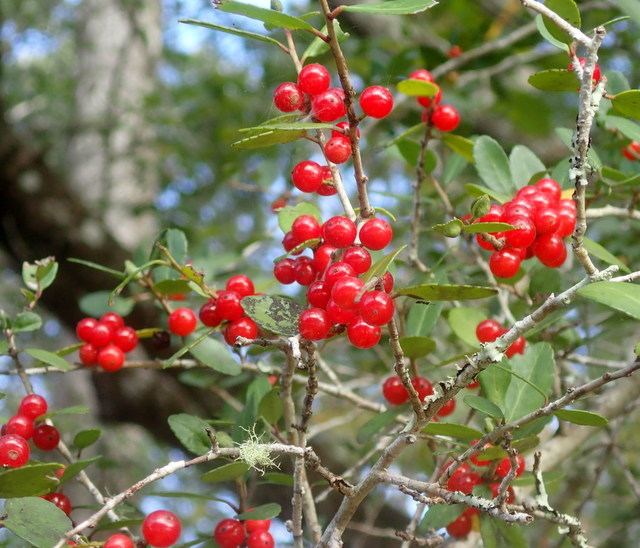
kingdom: Plantae
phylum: Tracheophyta
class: Magnoliopsida
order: Aquifoliales
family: Aquifoliaceae
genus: Ilex
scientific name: Ilex vomitoria
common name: Yaupon holly
